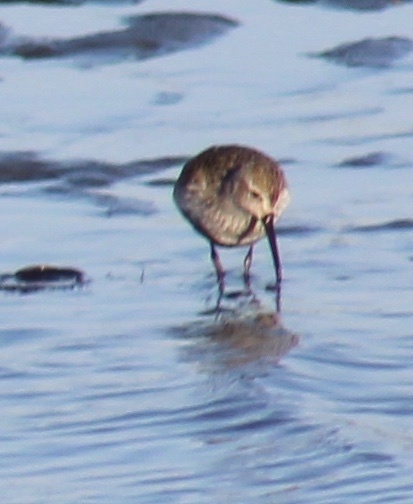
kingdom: Animalia
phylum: Chordata
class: Aves
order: Charadriiformes
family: Scolopacidae
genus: Calidris
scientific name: Calidris alpina
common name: Dunlin
